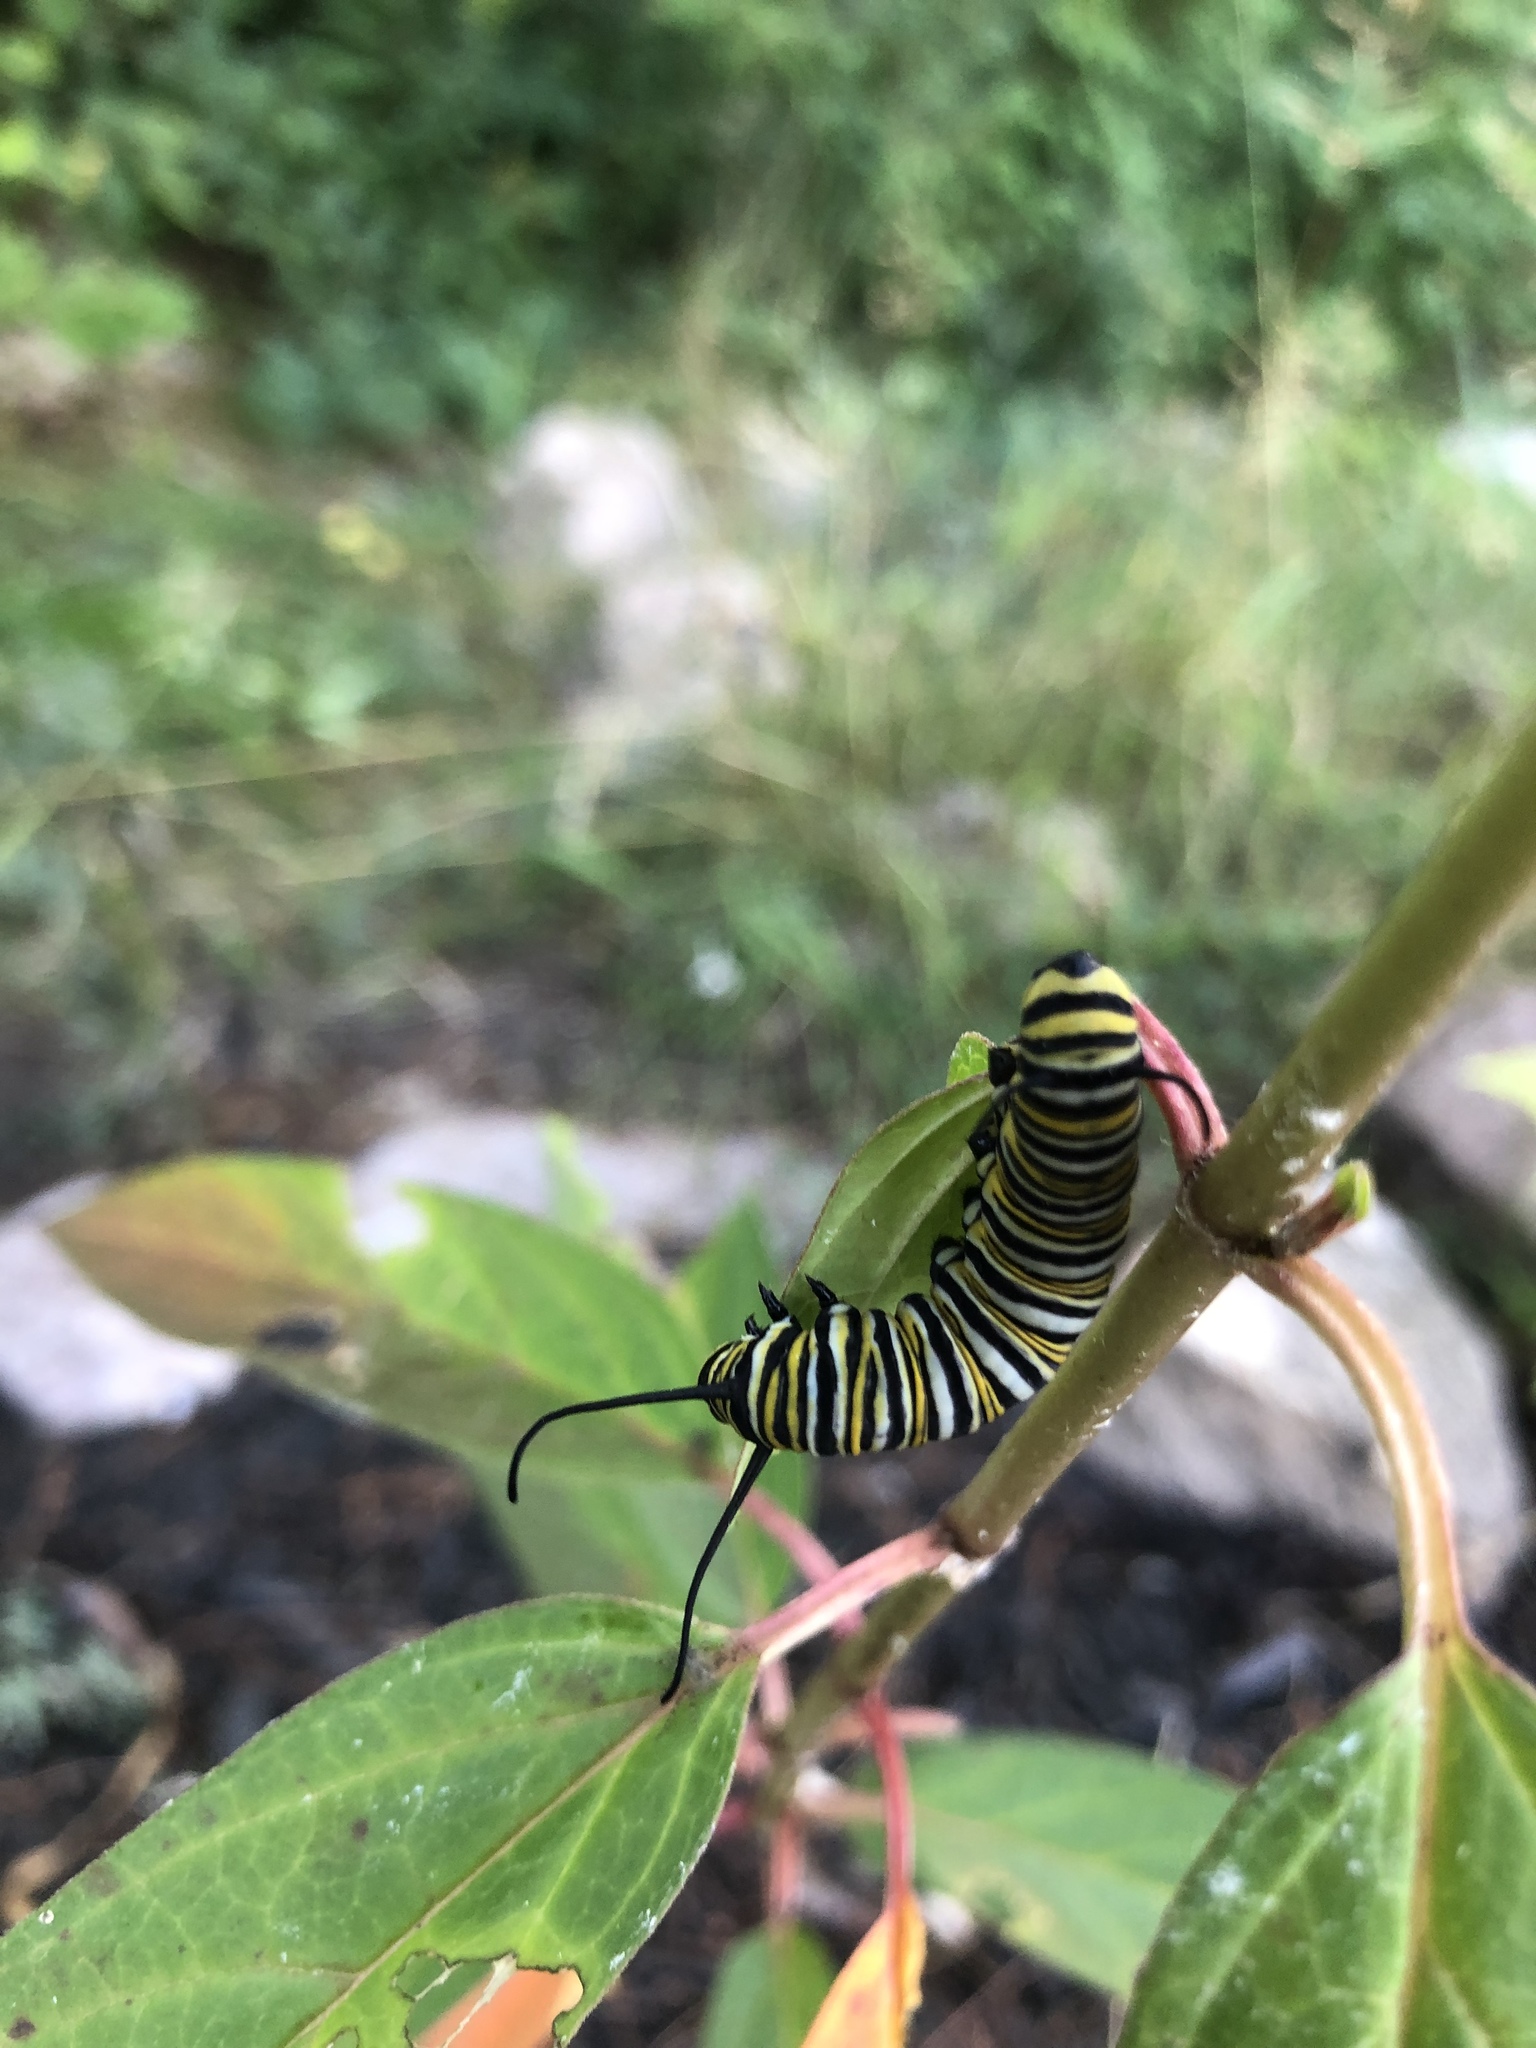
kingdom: Animalia
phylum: Arthropoda
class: Insecta
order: Lepidoptera
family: Nymphalidae
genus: Danaus
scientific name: Danaus plexippus
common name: Monarch
